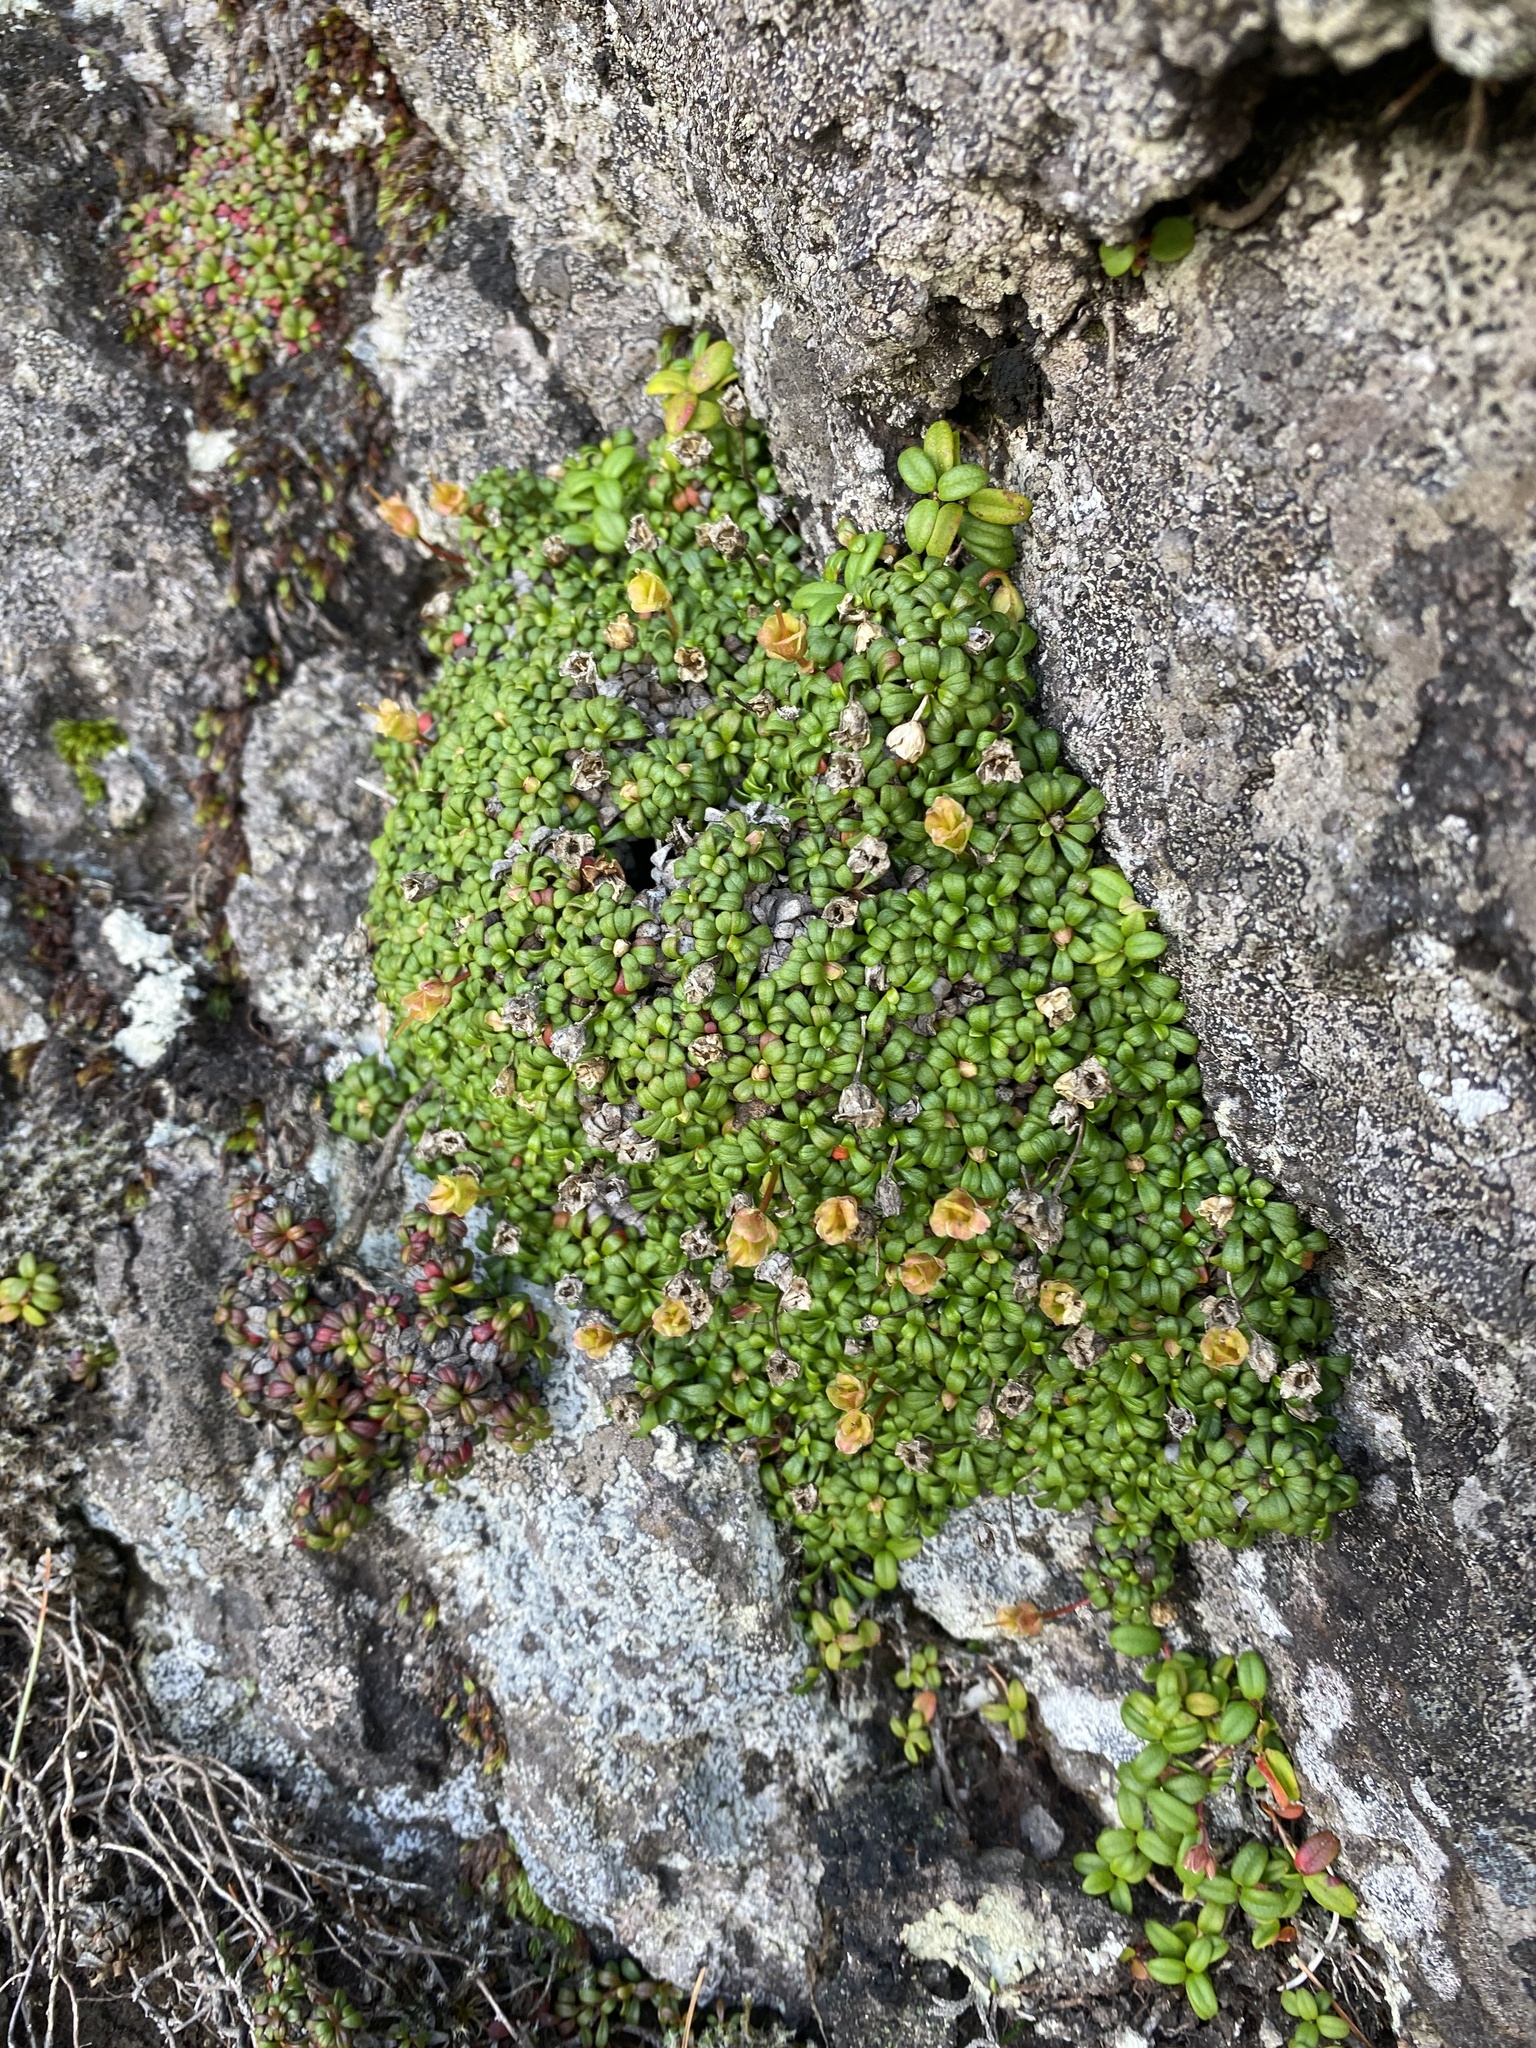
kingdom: Plantae
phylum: Tracheophyta
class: Magnoliopsida
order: Ericales
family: Diapensiaceae
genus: Diapensia
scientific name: Diapensia obovata
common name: Alaska diapensia
